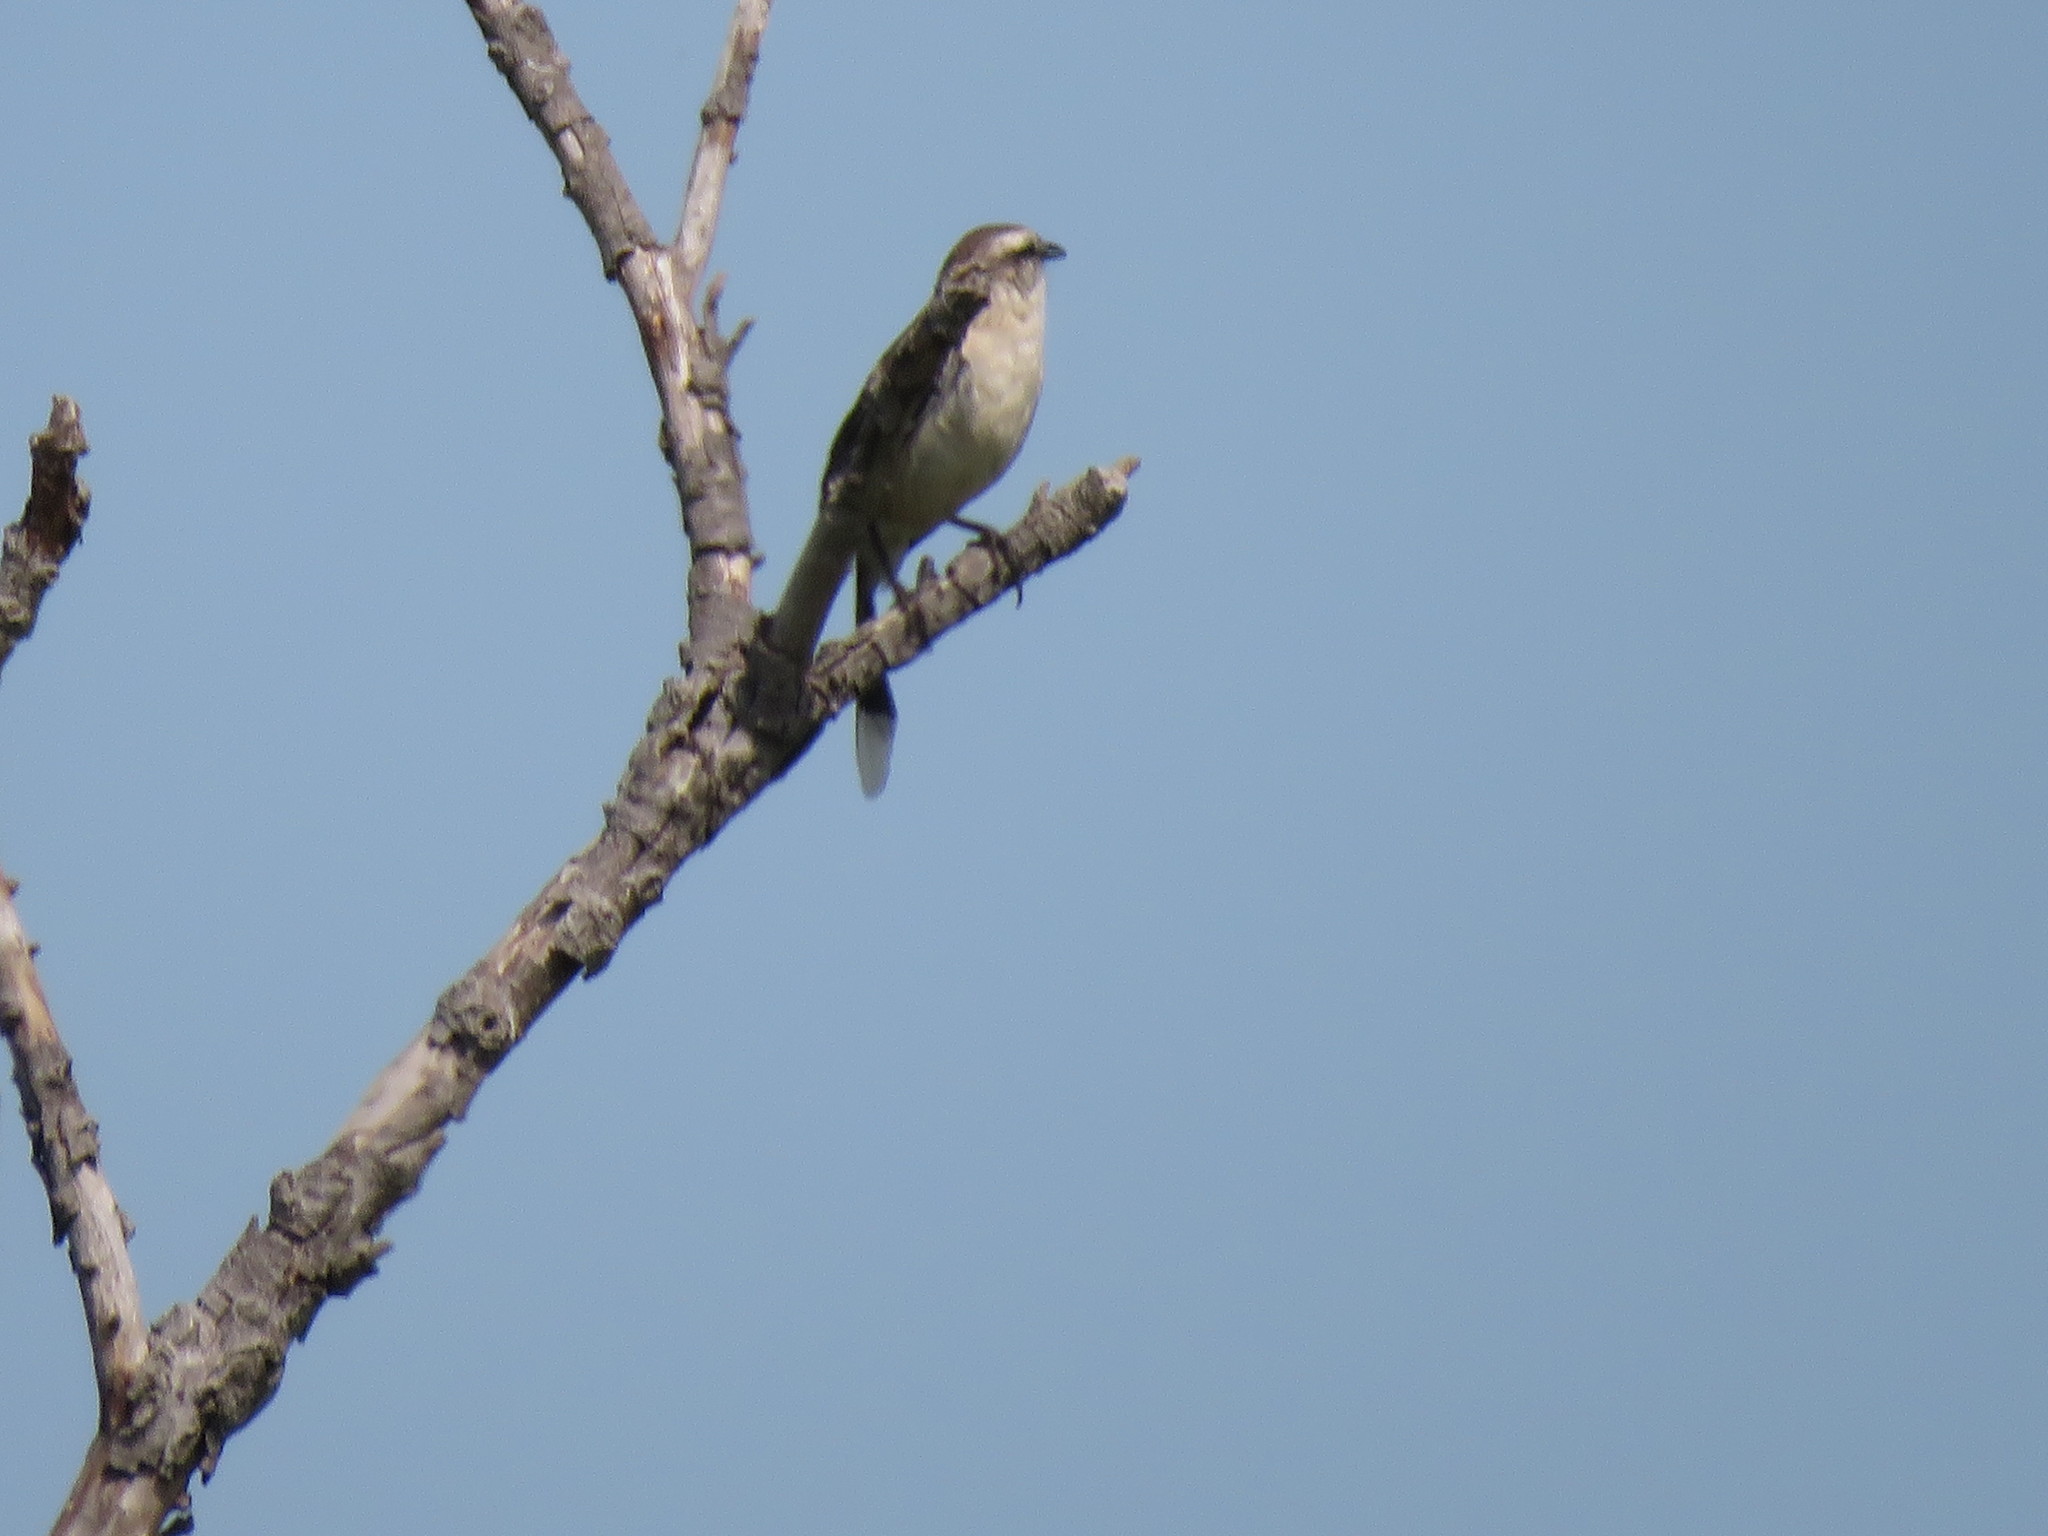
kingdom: Animalia
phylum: Chordata
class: Aves
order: Passeriformes
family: Mimidae
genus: Mimus
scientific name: Mimus saturninus
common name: Chalk-browed mockingbird
